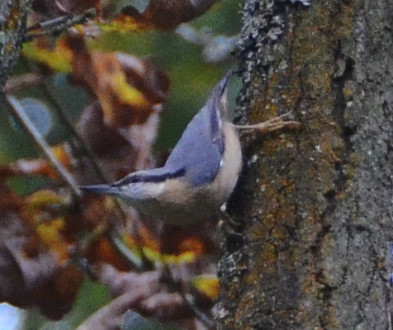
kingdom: Animalia
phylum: Chordata
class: Aves
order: Passeriformes
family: Sittidae
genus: Sitta
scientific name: Sitta europaea
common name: Eurasian nuthatch
